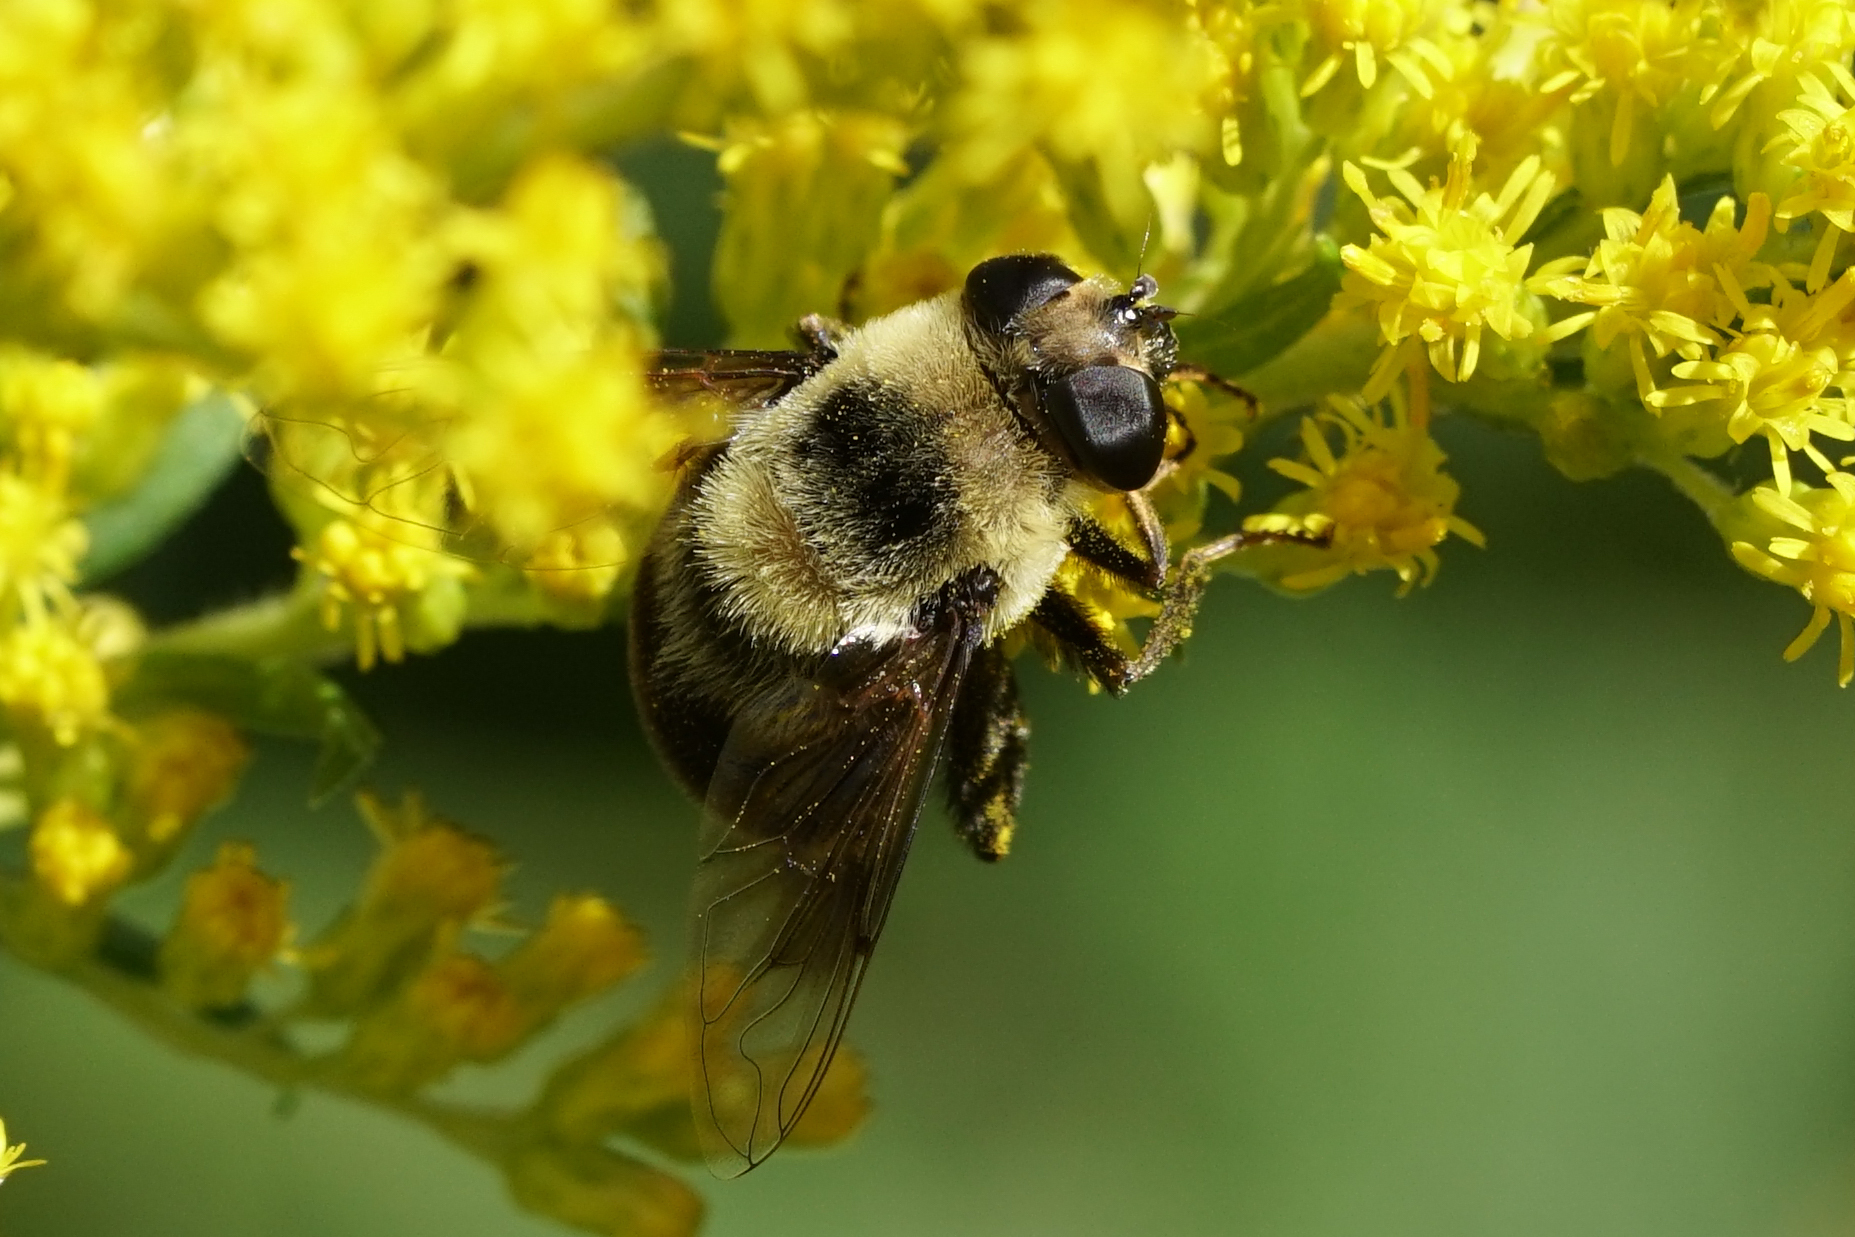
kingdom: Animalia
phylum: Arthropoda
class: Insecta
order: Diptera
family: Syrphidae
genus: Eristalis
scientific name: Eristalis flavipes
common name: Orange-legged drone fly
